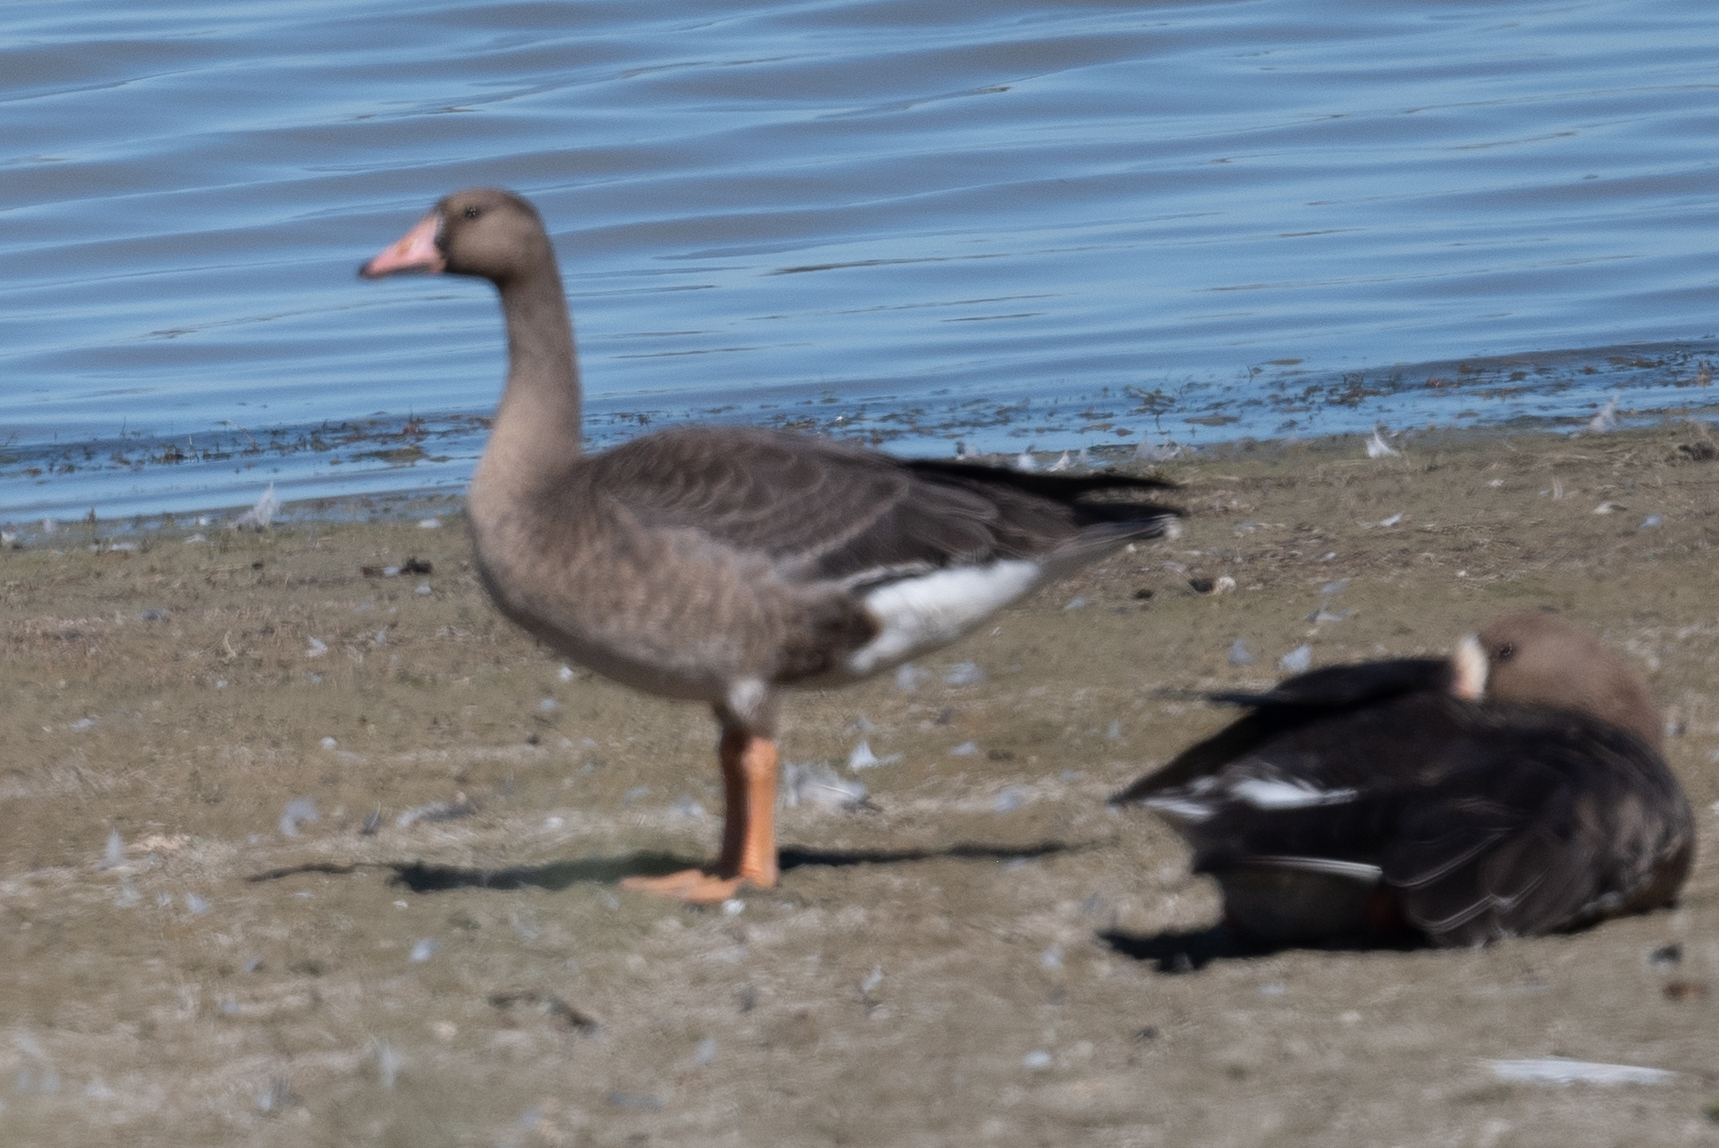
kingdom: Animalia
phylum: Chordata
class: Aves
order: Anseriformes
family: Anatidae
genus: Anser
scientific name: Anser albifrons
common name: Greater white-fronted goose
